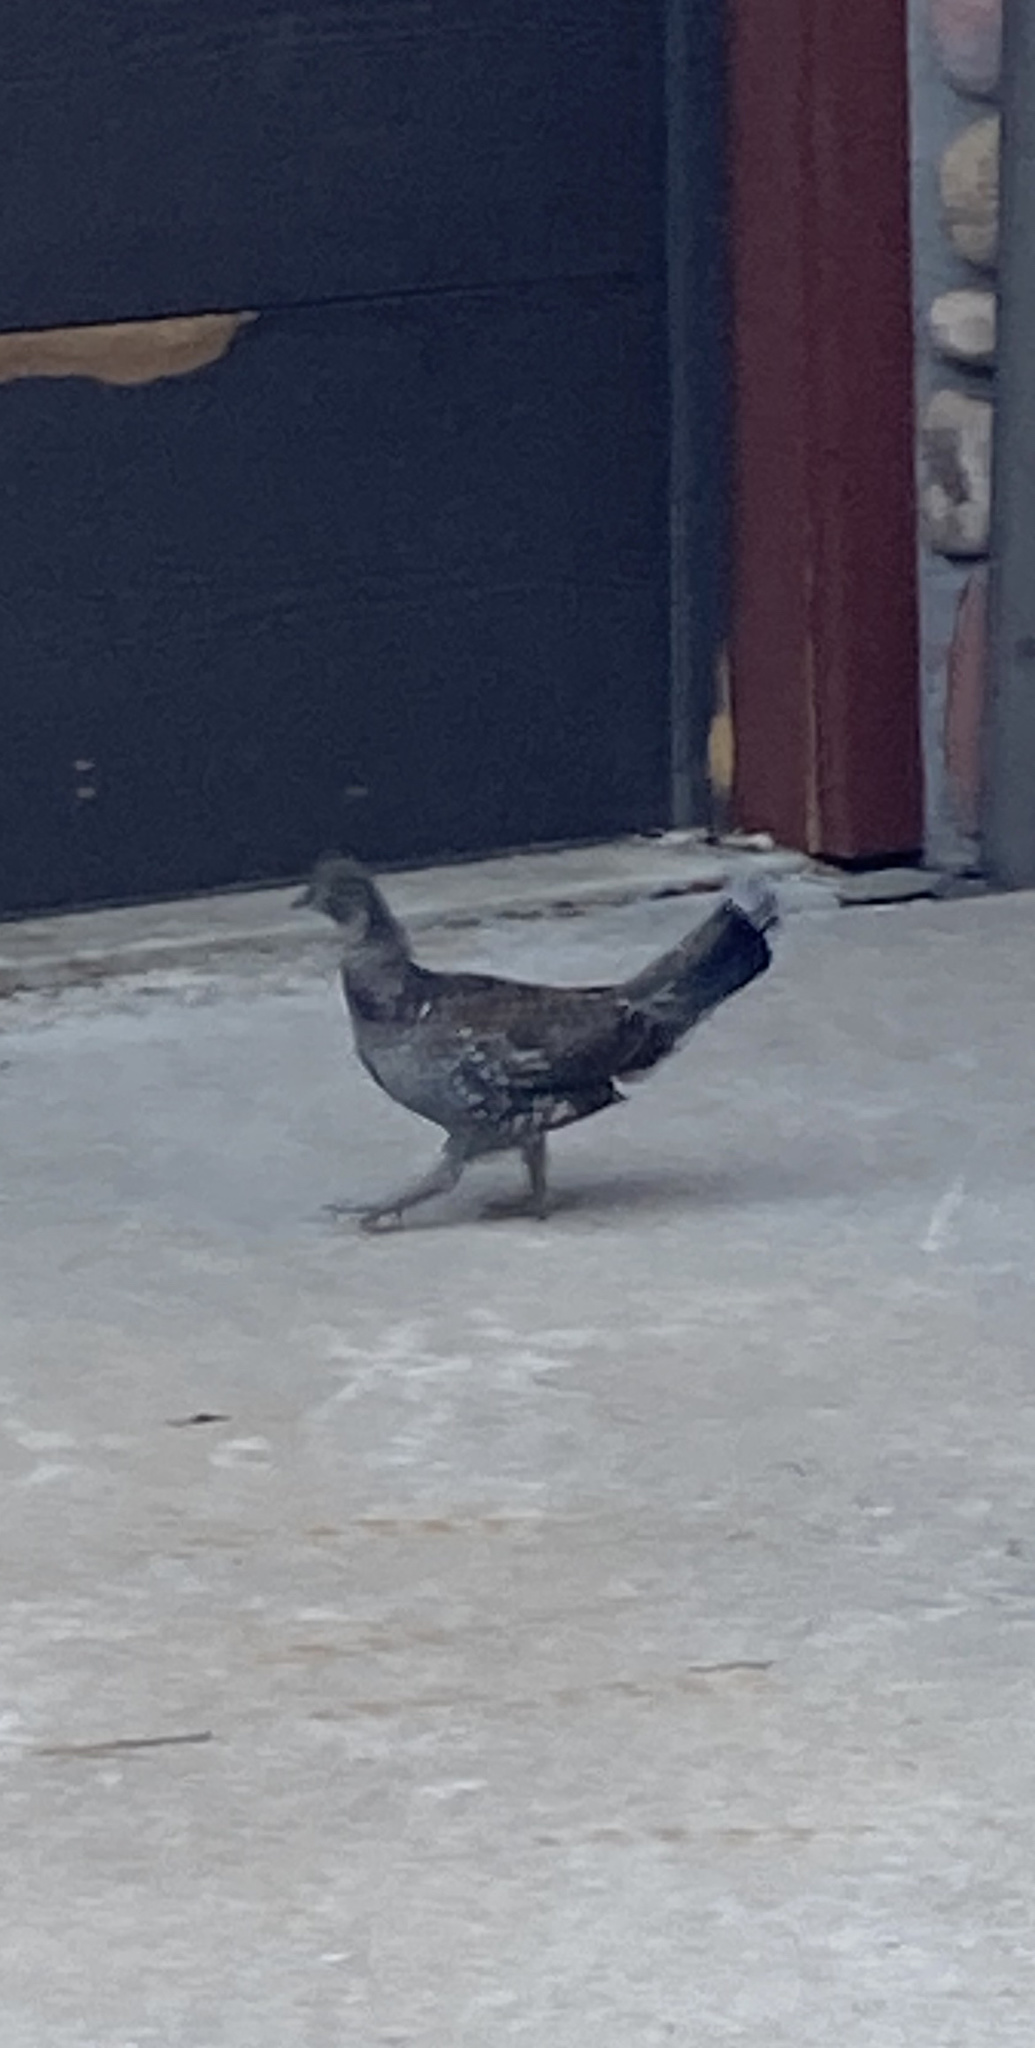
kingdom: Animalia
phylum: Chordata
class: Aves
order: Galliformes
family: Phasianidae
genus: Dendragapus
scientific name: Dendragapus obscurus
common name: Dusky grouse
